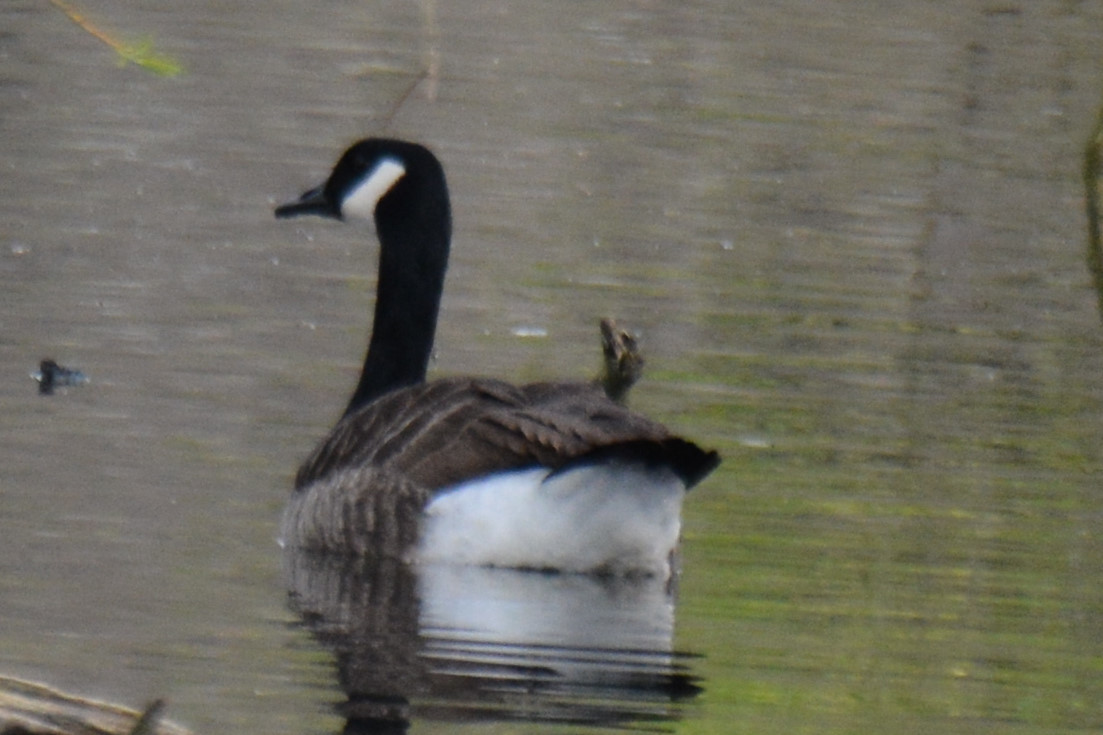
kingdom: Animalia
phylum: Chordata
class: Aves
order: Anseriformes
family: Anatidae
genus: Branta
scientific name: Branta canadensis
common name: Canada goose
